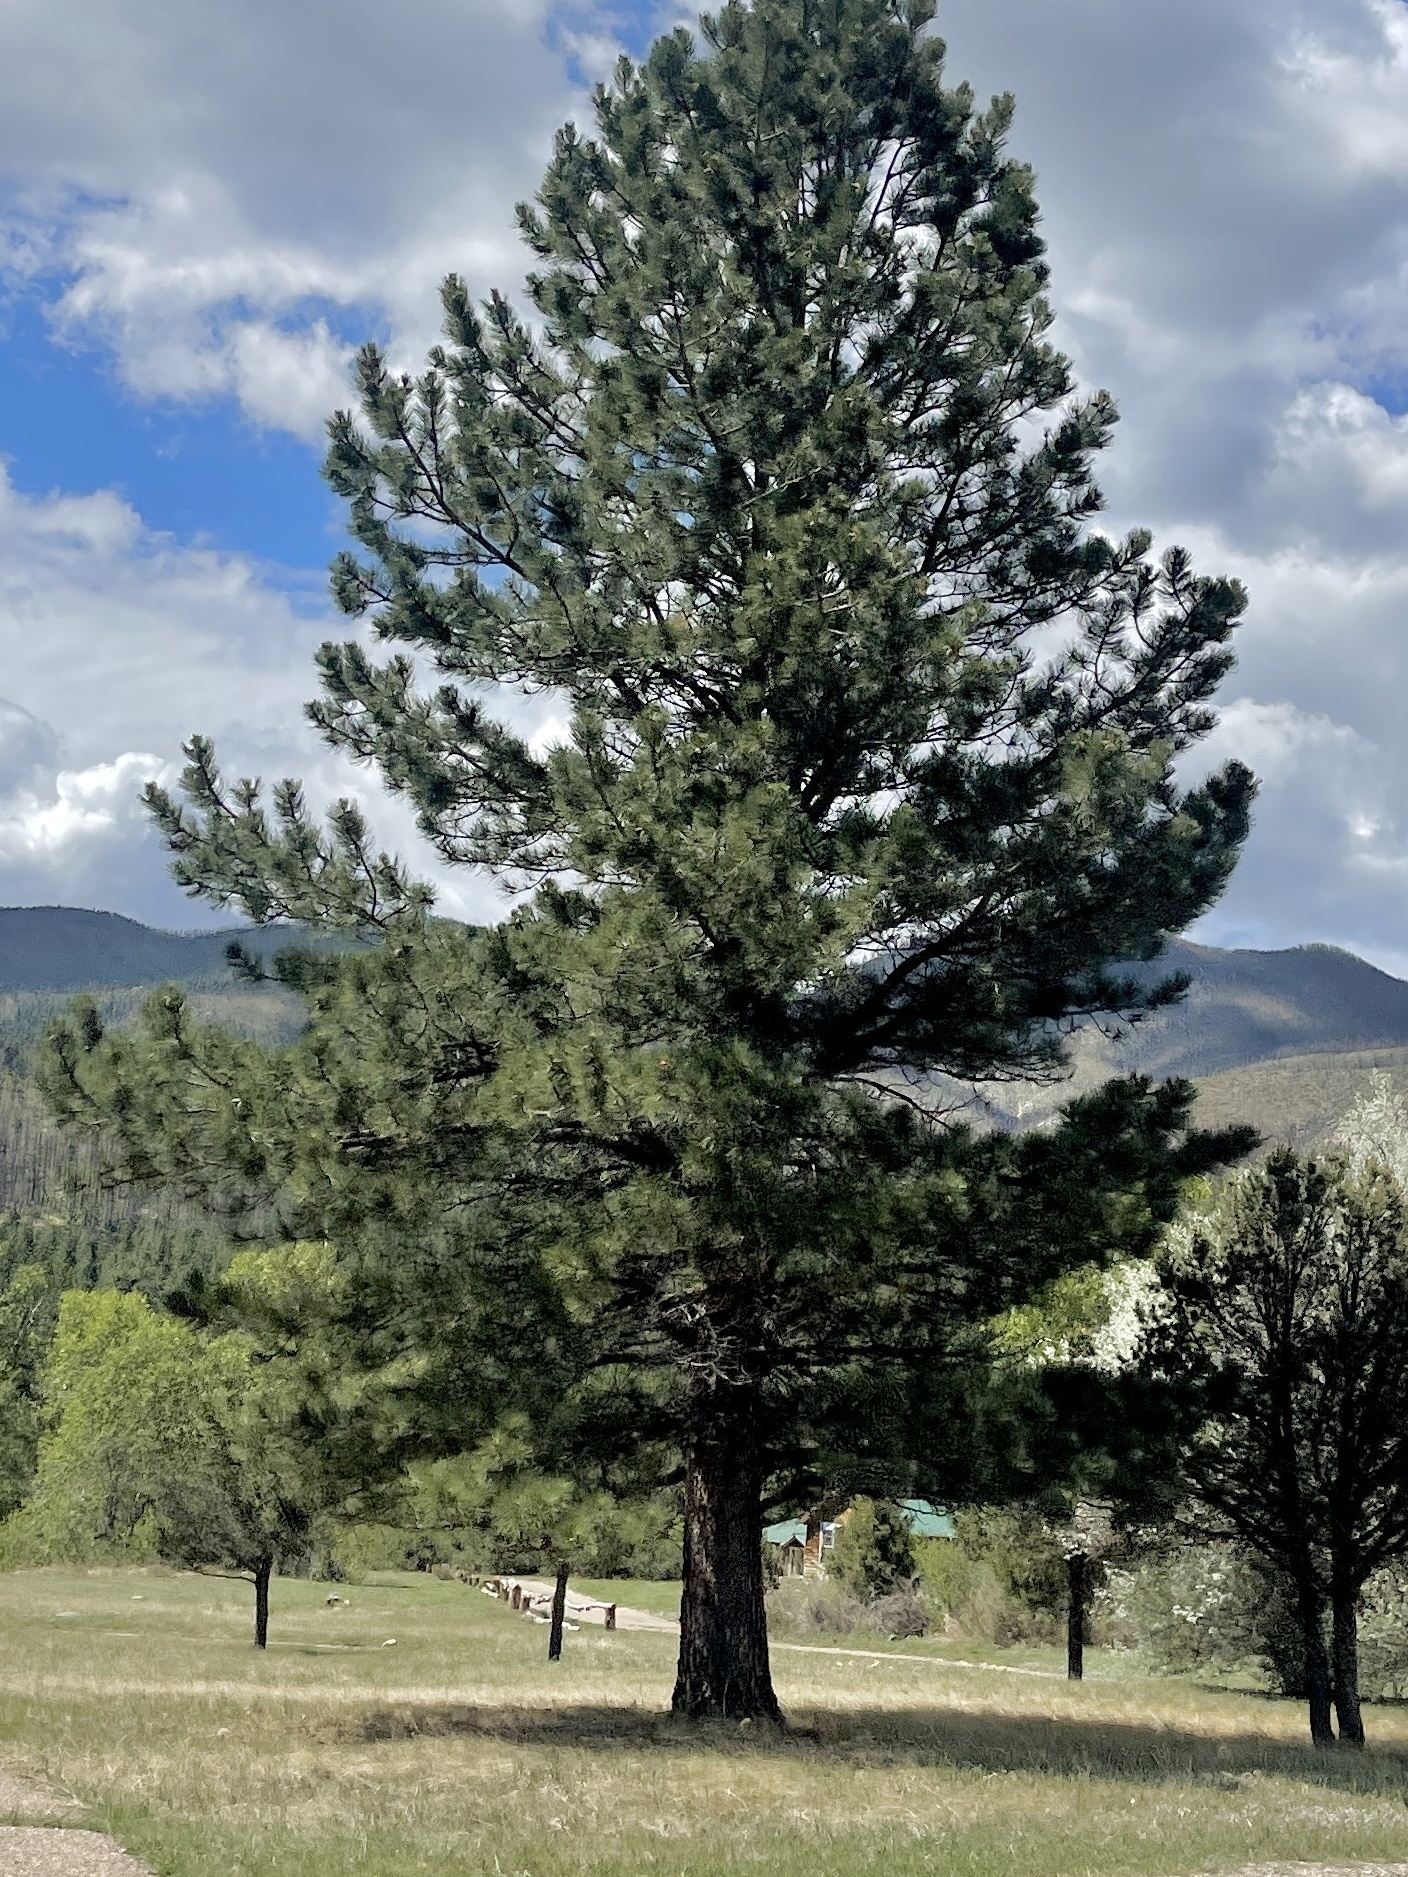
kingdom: Plantae
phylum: Tracheophyta
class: Pinopsida
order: Pinales
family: Pinaceae
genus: Pinus
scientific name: Pinus ponderosa
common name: Western yellow-pine
